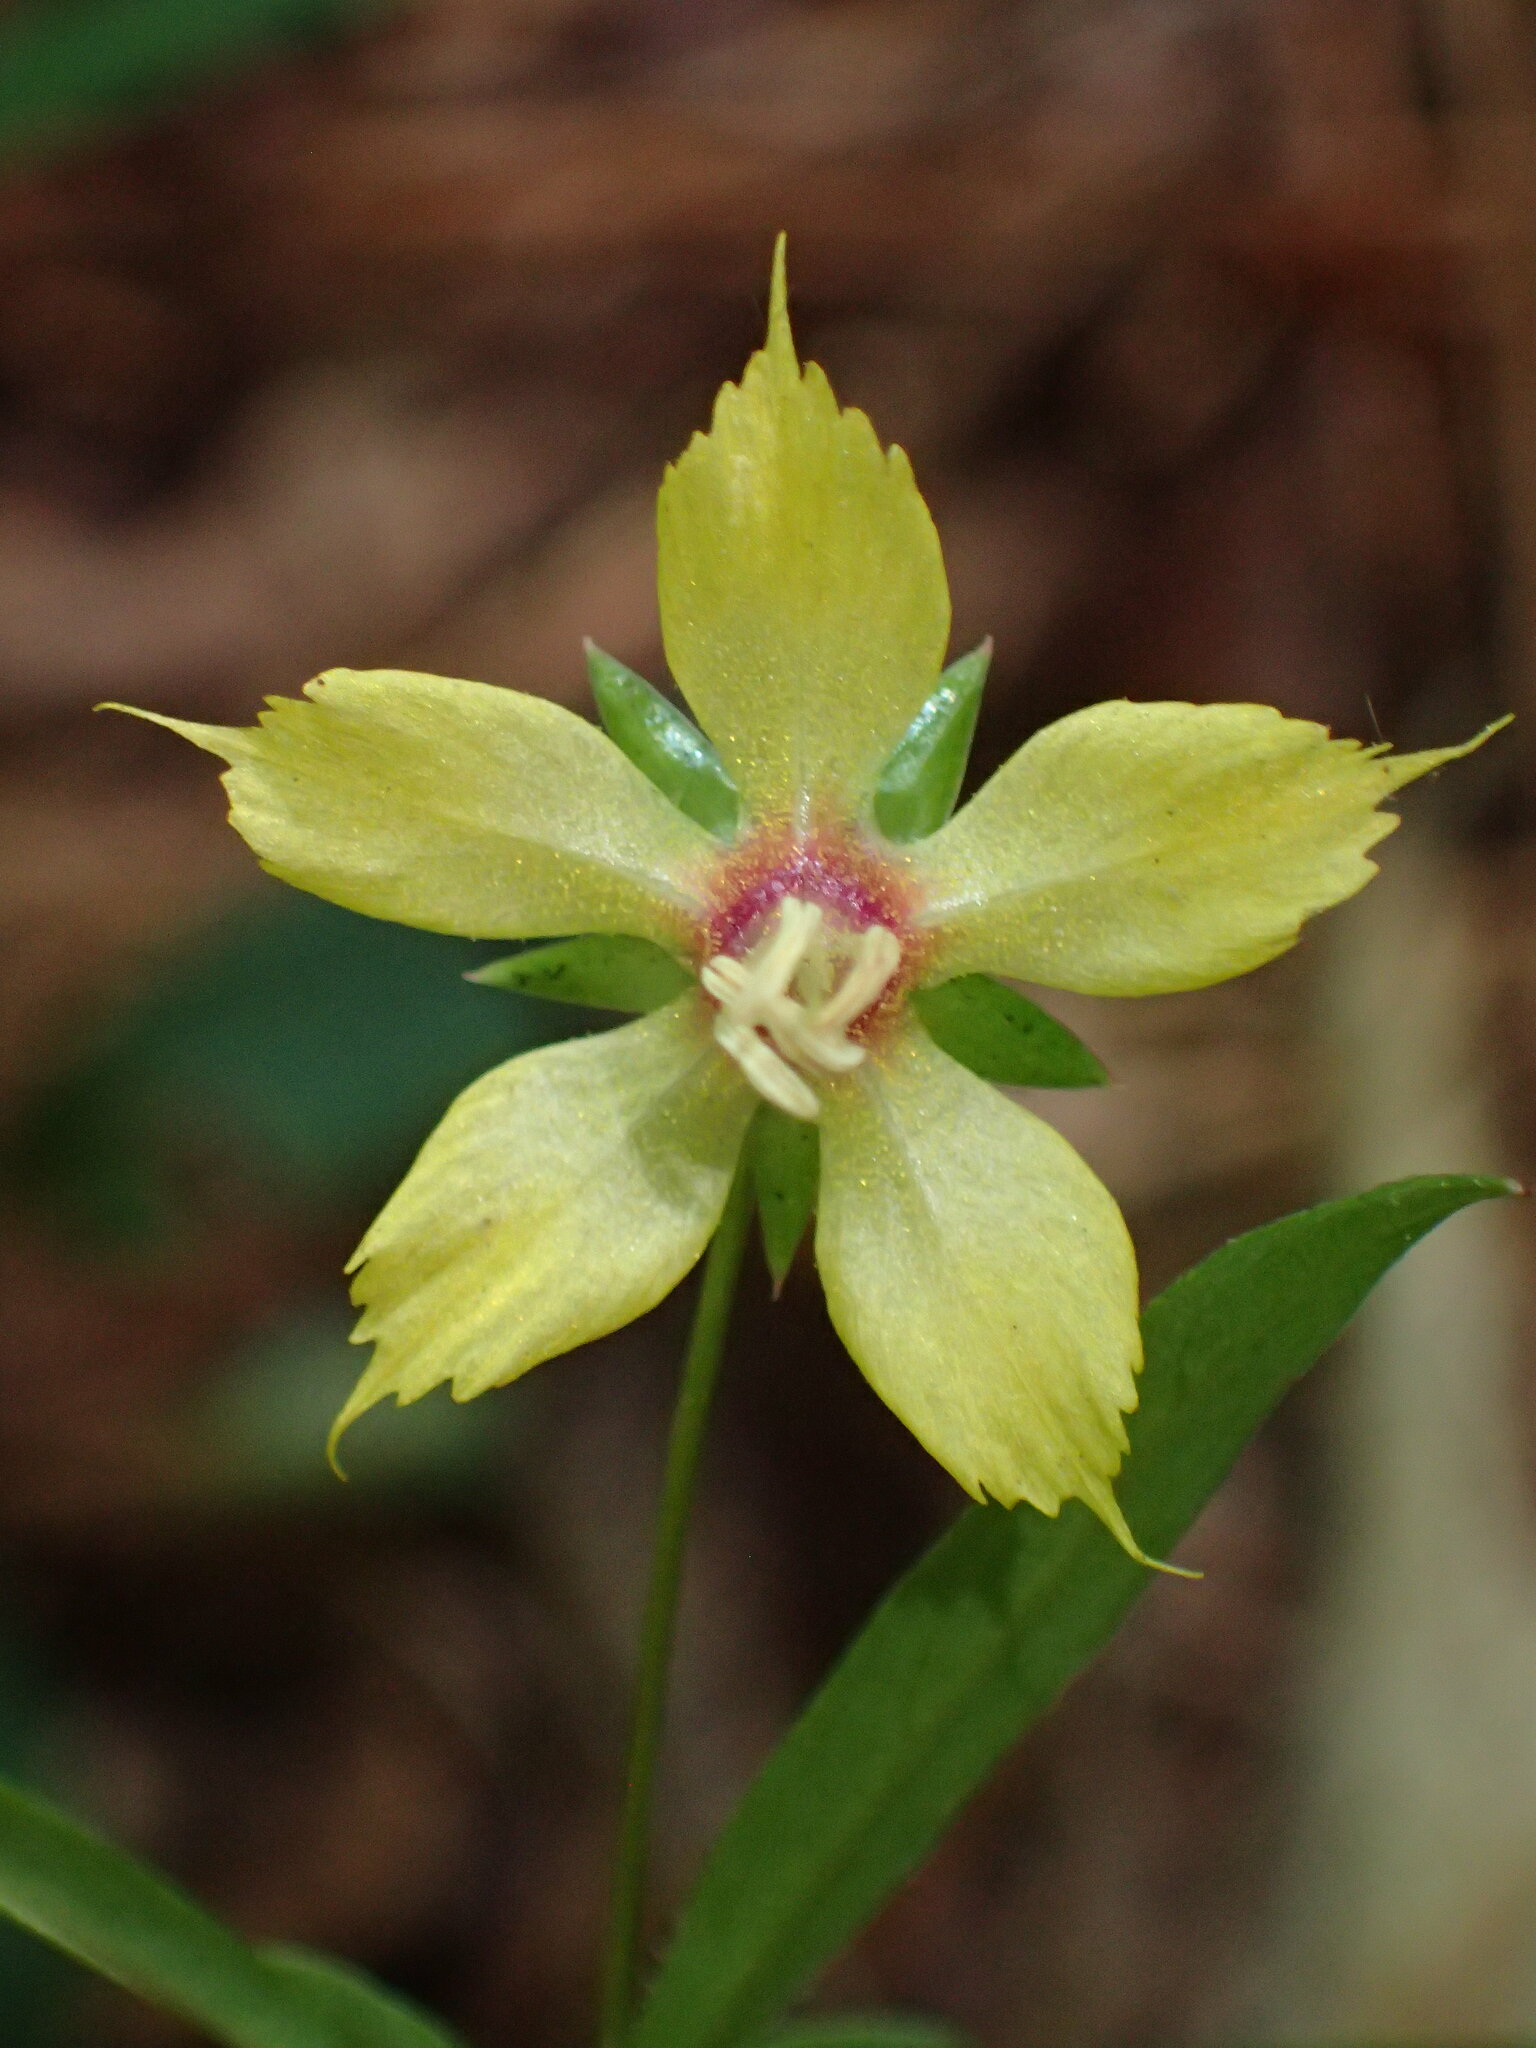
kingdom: Plantae
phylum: Tracheophyta
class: Magnoliopsida
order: Ericales
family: Primulaceae
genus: Lysimachia
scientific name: Lysimachia lanceolata
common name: Lance-leaved loosestrife
